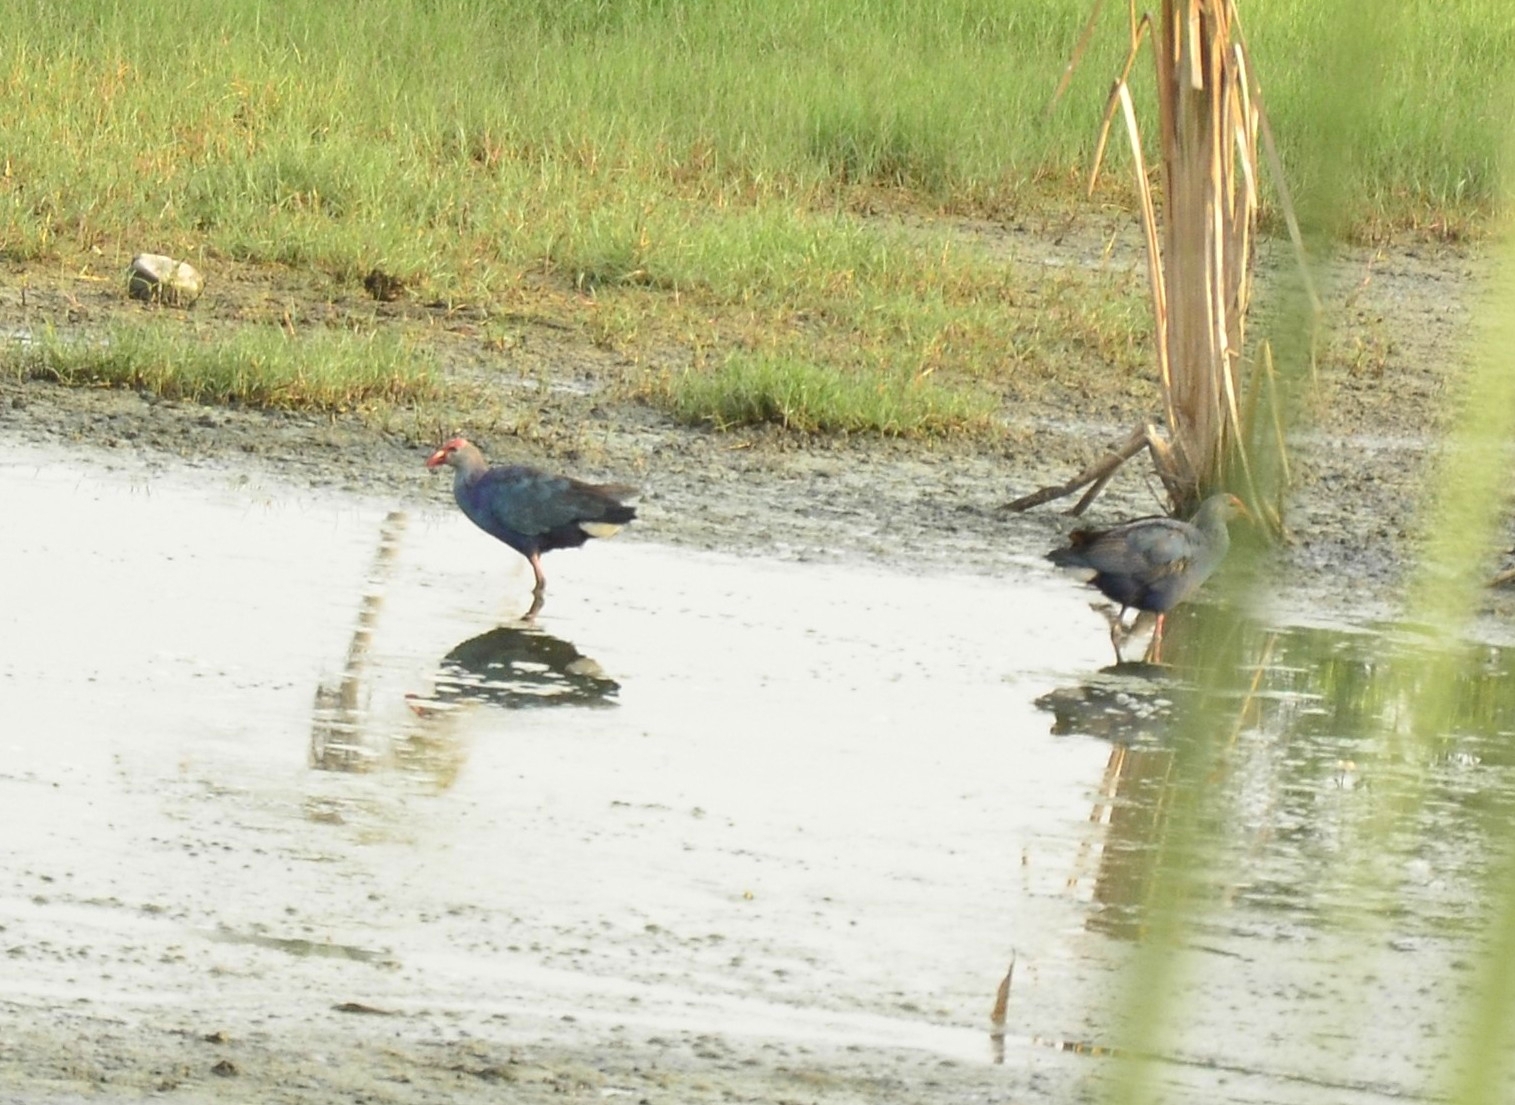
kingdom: Animalia
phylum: Chordata
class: Aves
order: Gruiformes
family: Rallidae
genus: Porphyrio
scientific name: Porphyrio porphyrio
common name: Purple swamphen
